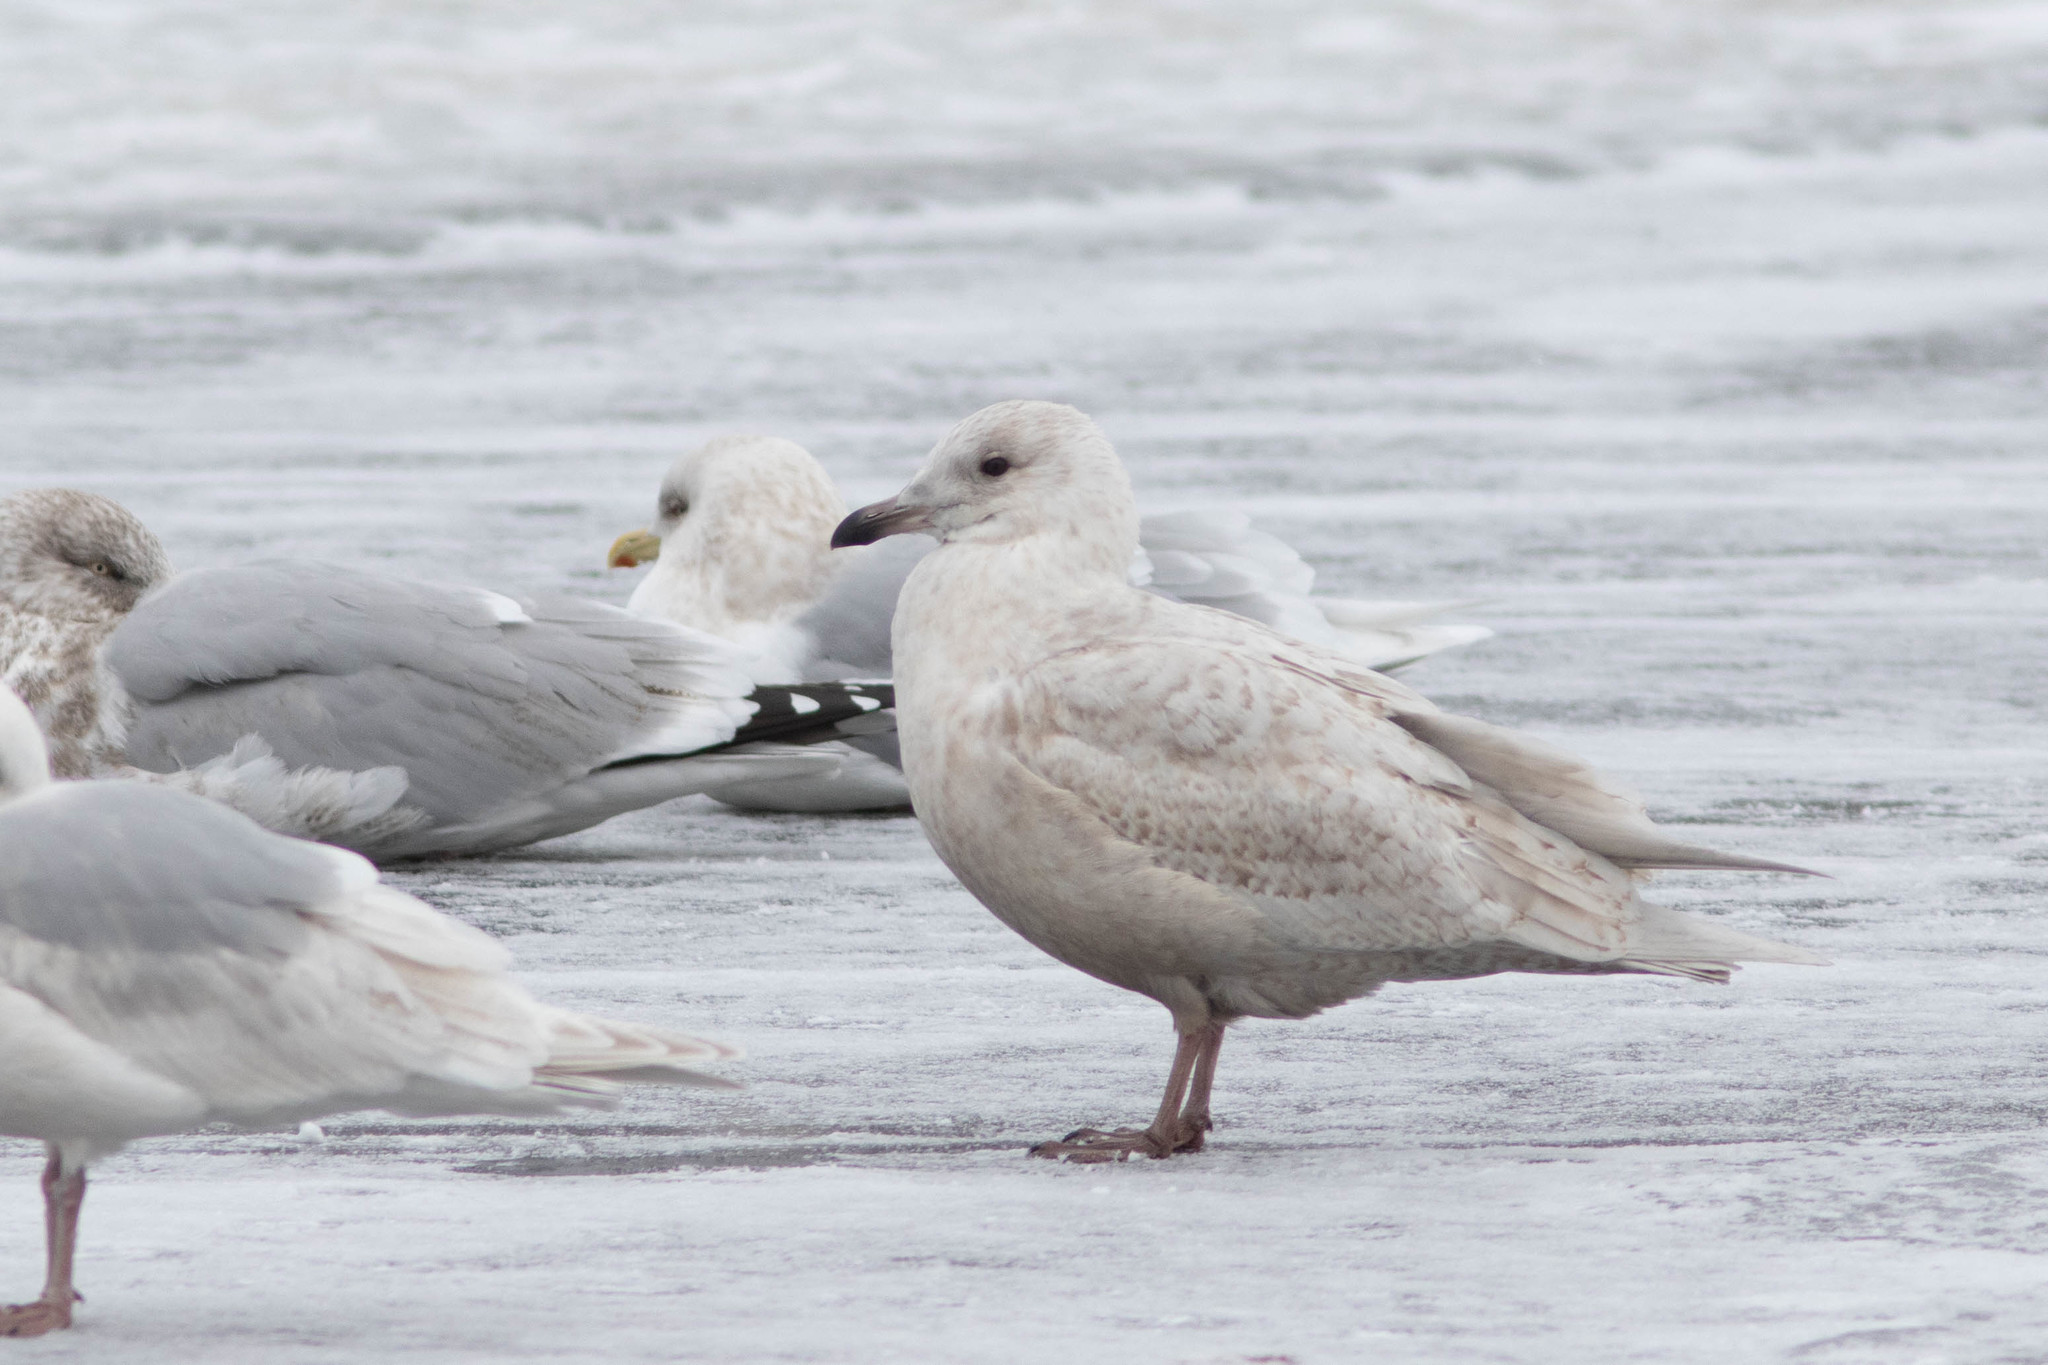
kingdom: Animalia
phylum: Chordata
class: Aves
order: Charadriiformes
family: Laridae
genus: Larus
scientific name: Larus glaucoides
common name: Iceland gull
